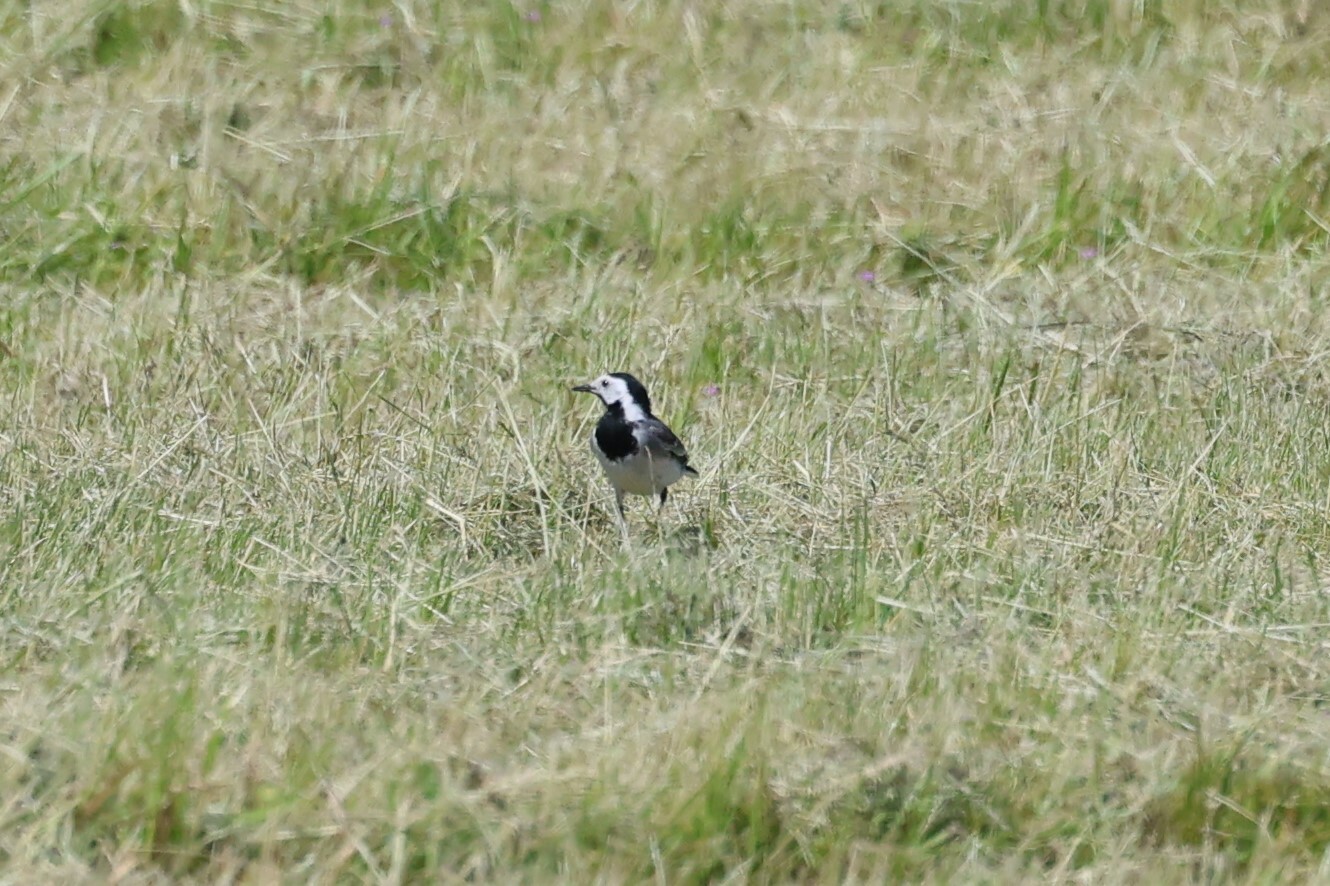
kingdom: Animalia
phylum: Chordata
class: Aves
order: Passeriformes
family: Motacillidae
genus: Motacilla
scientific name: Motacilla alba
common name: White wagtail
